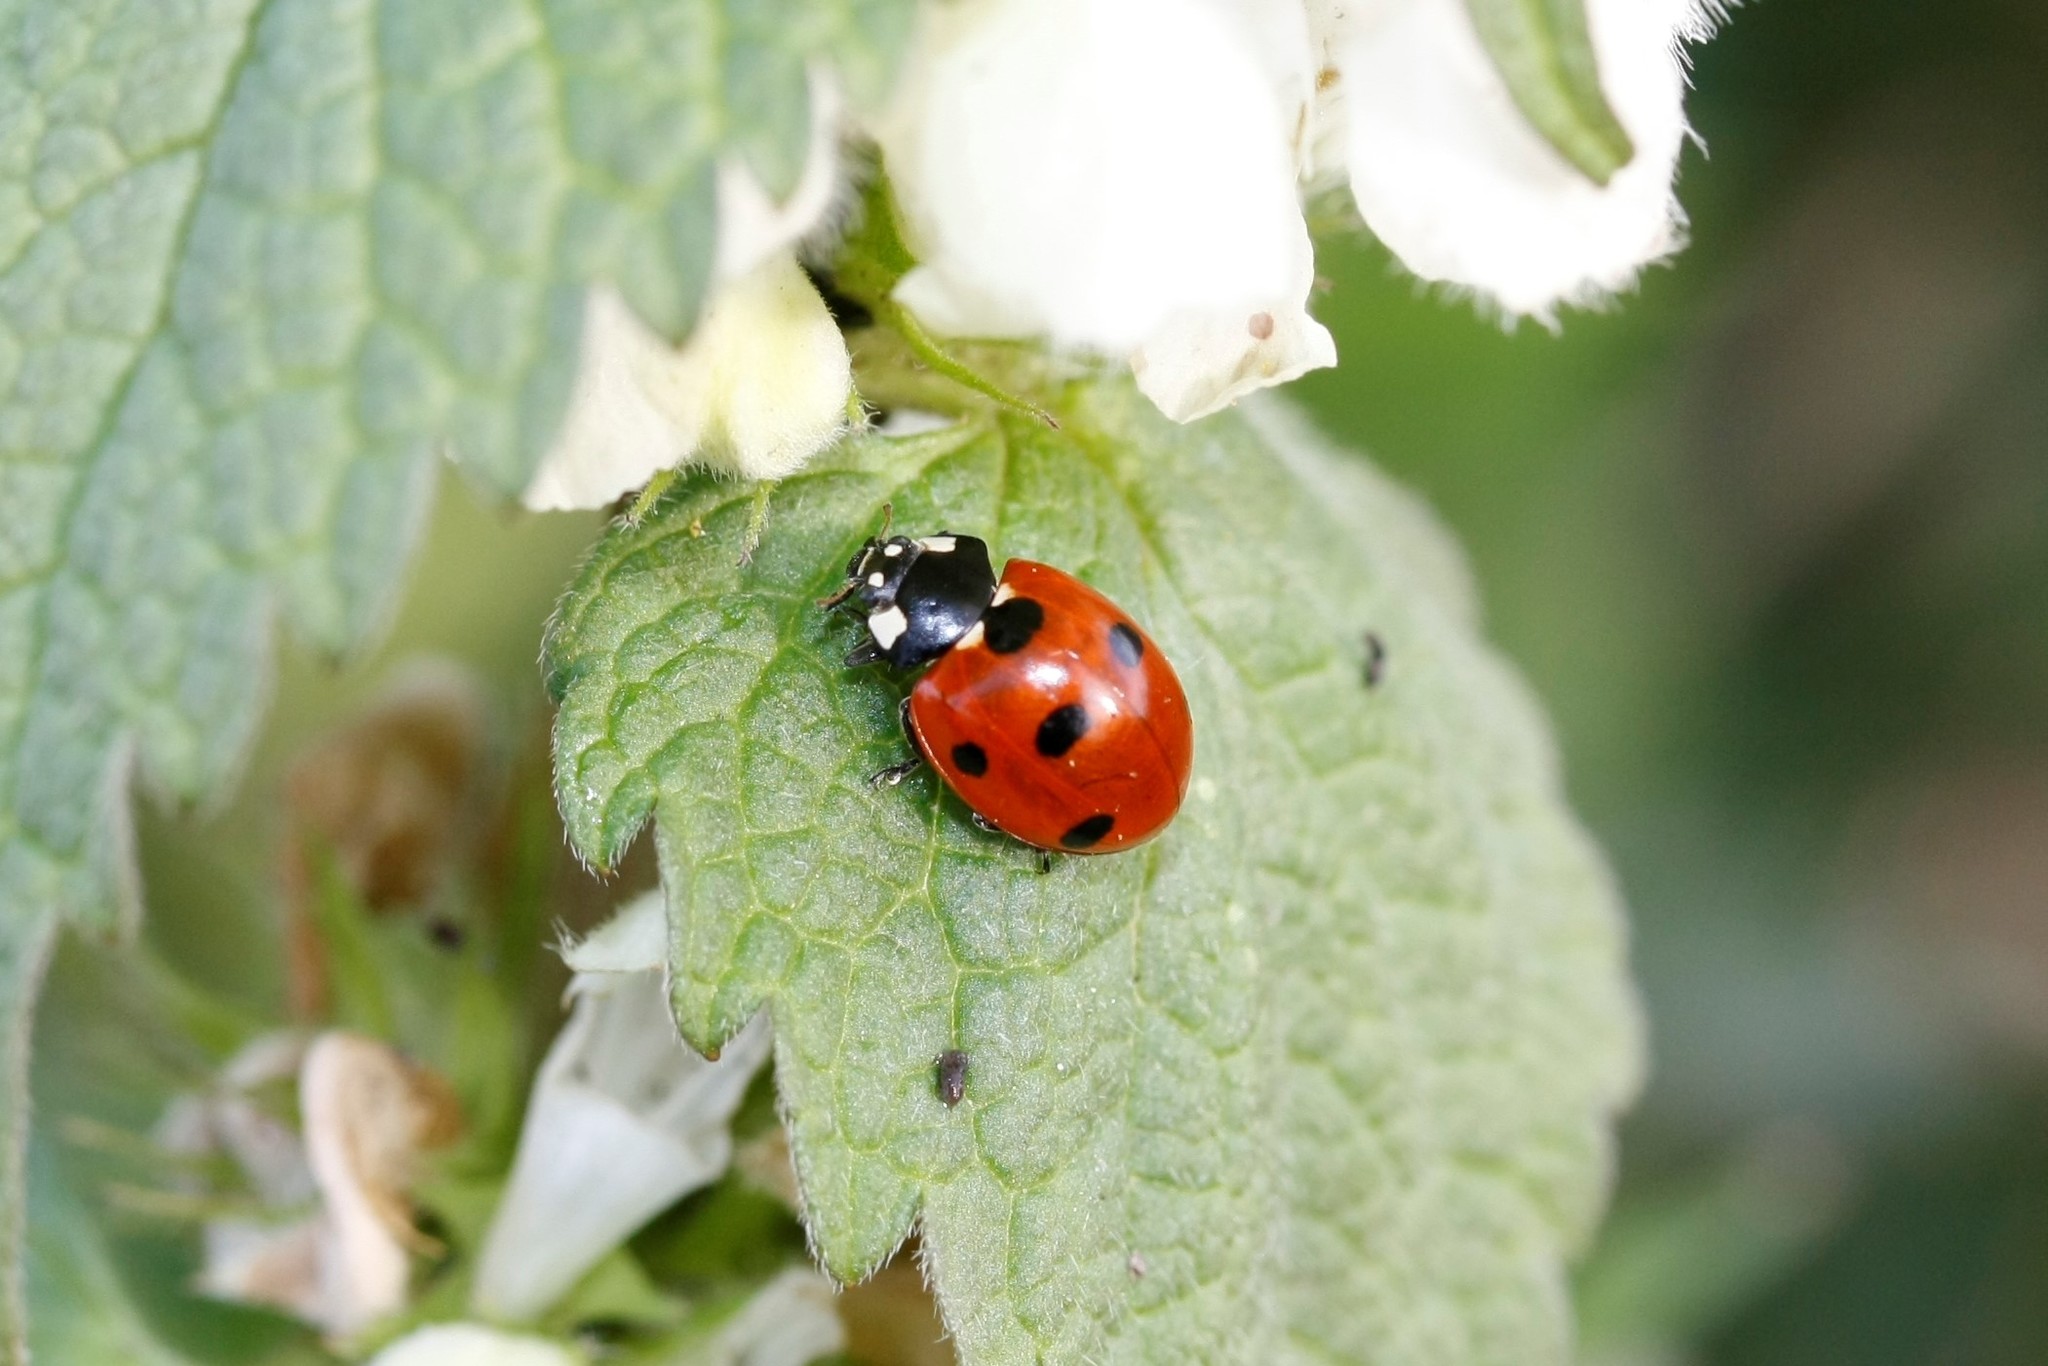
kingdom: Animalia
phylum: Arthropoda
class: Insecta
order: Coleoptera
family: Coccinellidae
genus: Coccinella
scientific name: Coccinella septempunctata
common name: Sevenspotted lady beetle
